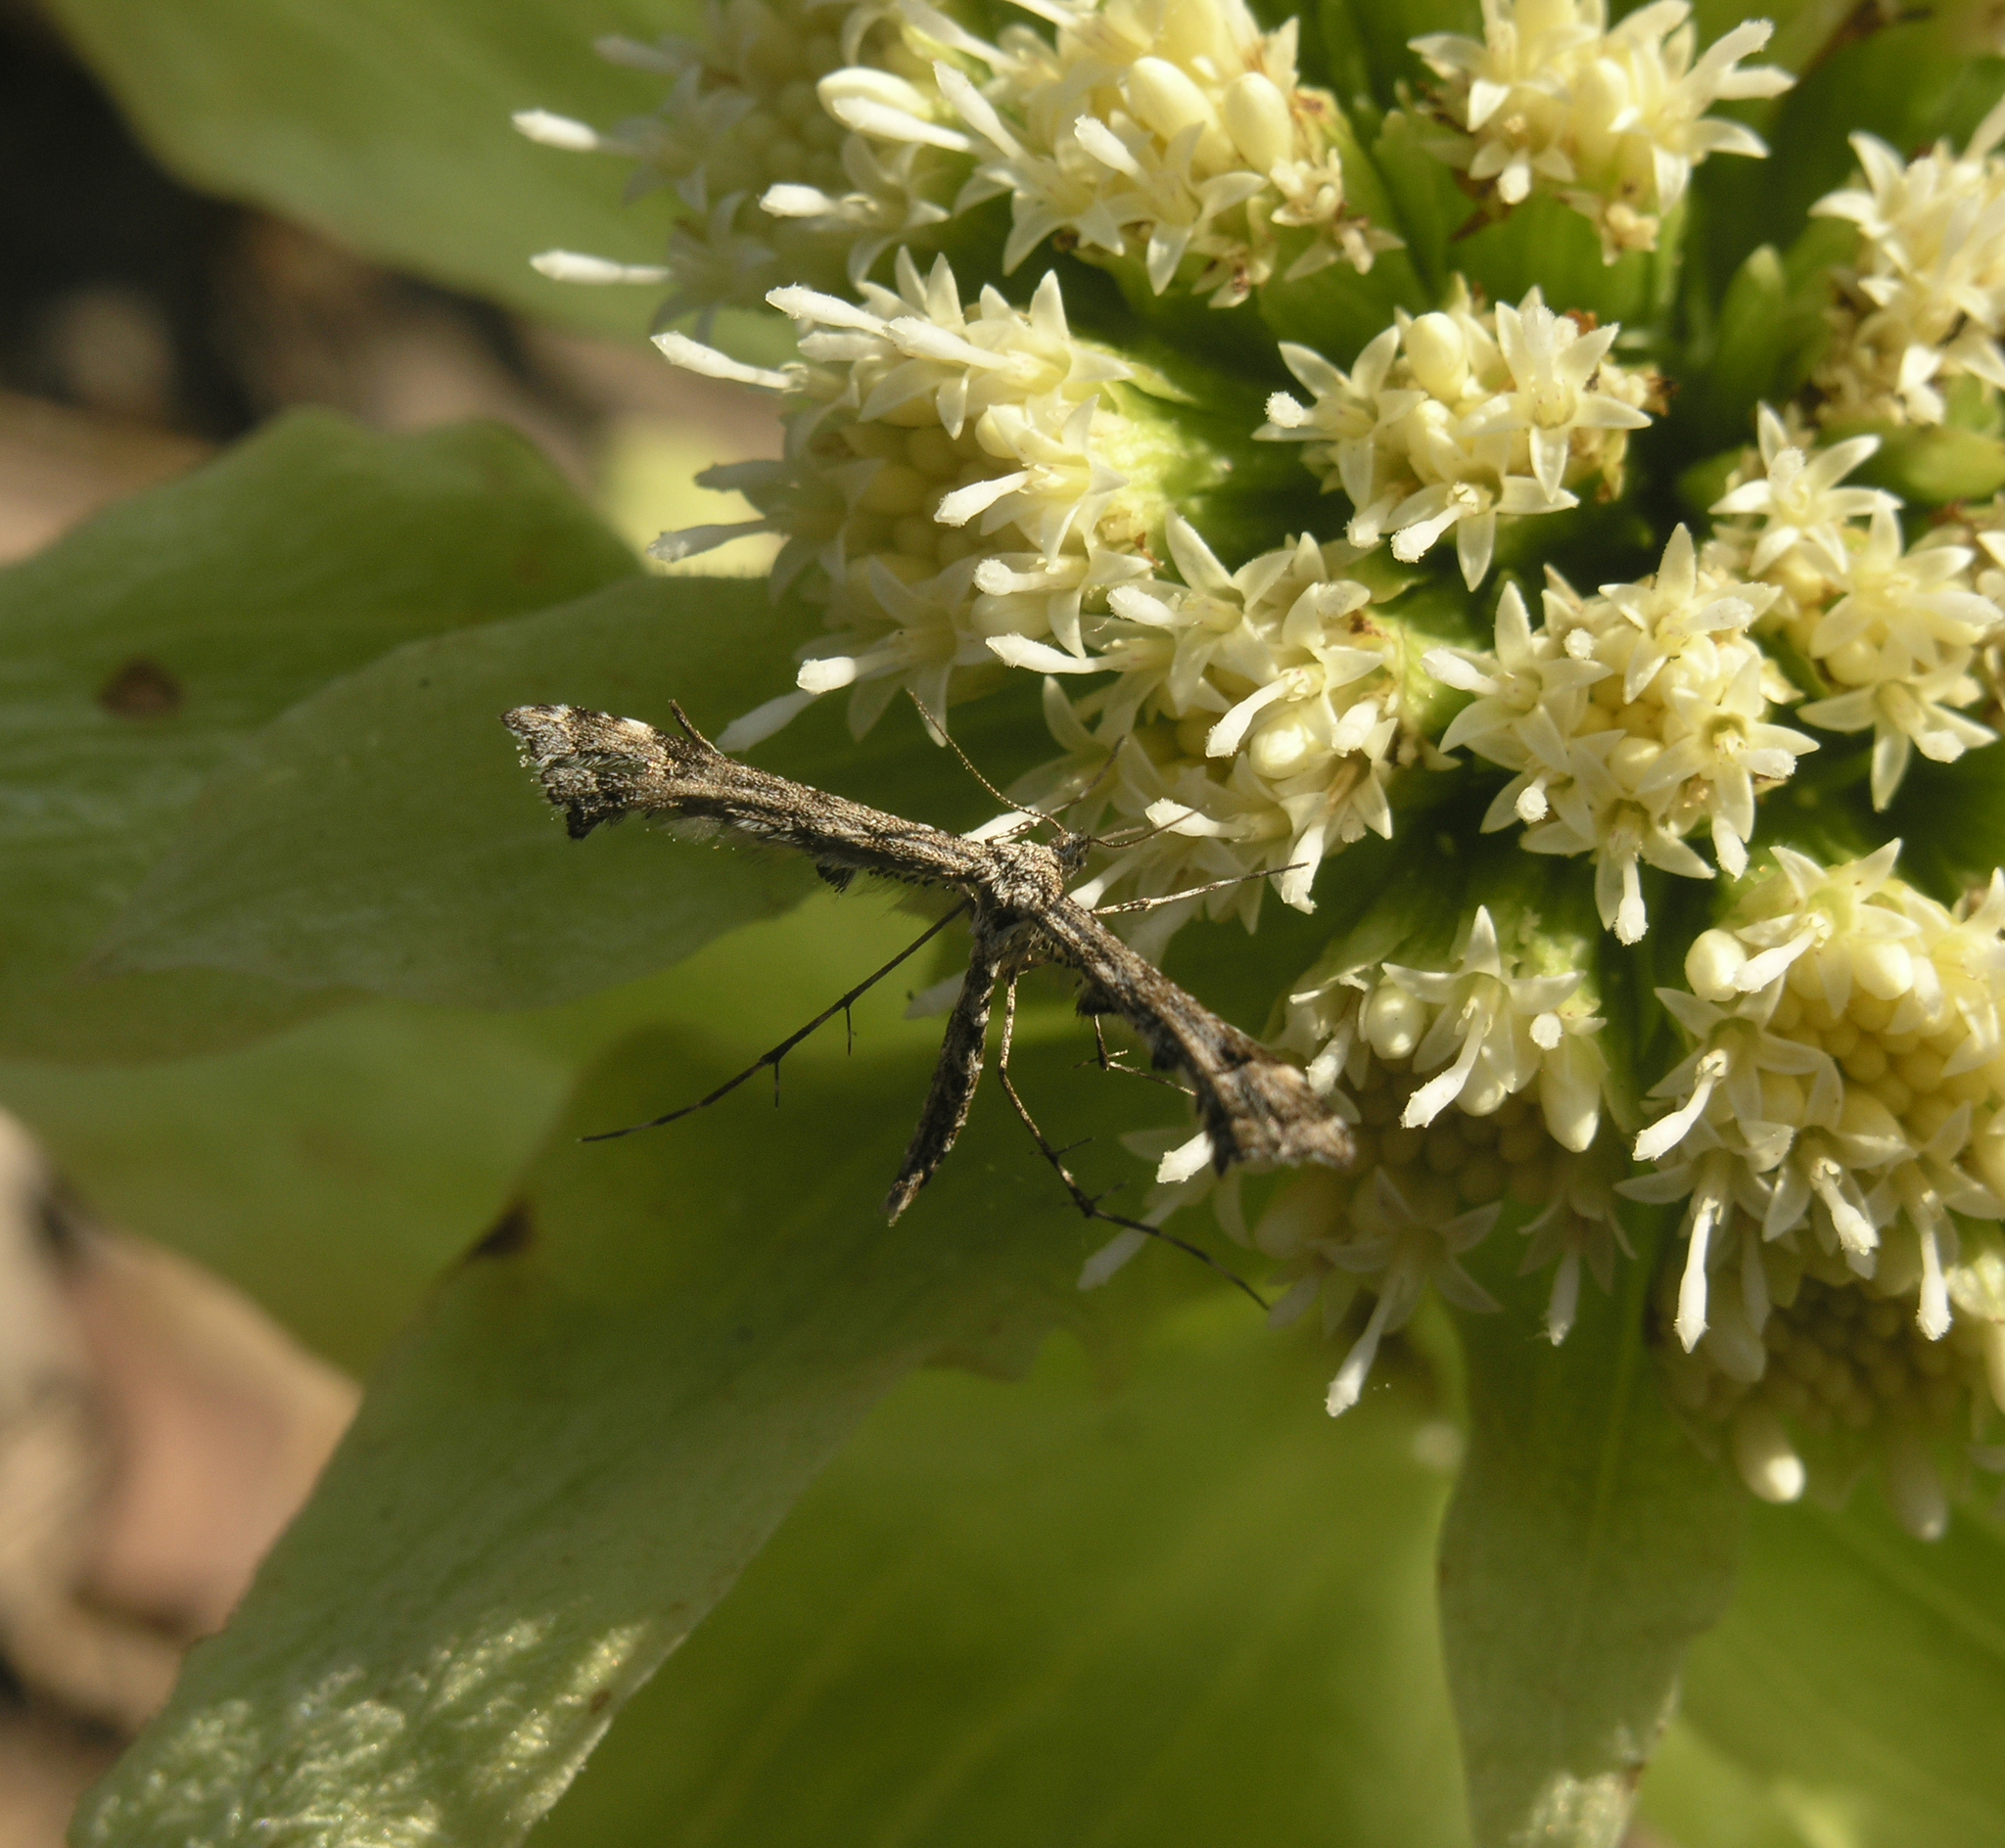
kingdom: Animalia
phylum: Arthropoda
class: Insecta
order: Lepidoptera
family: Pterophoridae
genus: Amblyptilia
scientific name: Amblyptilia punctidactyla
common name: Brindled plume
